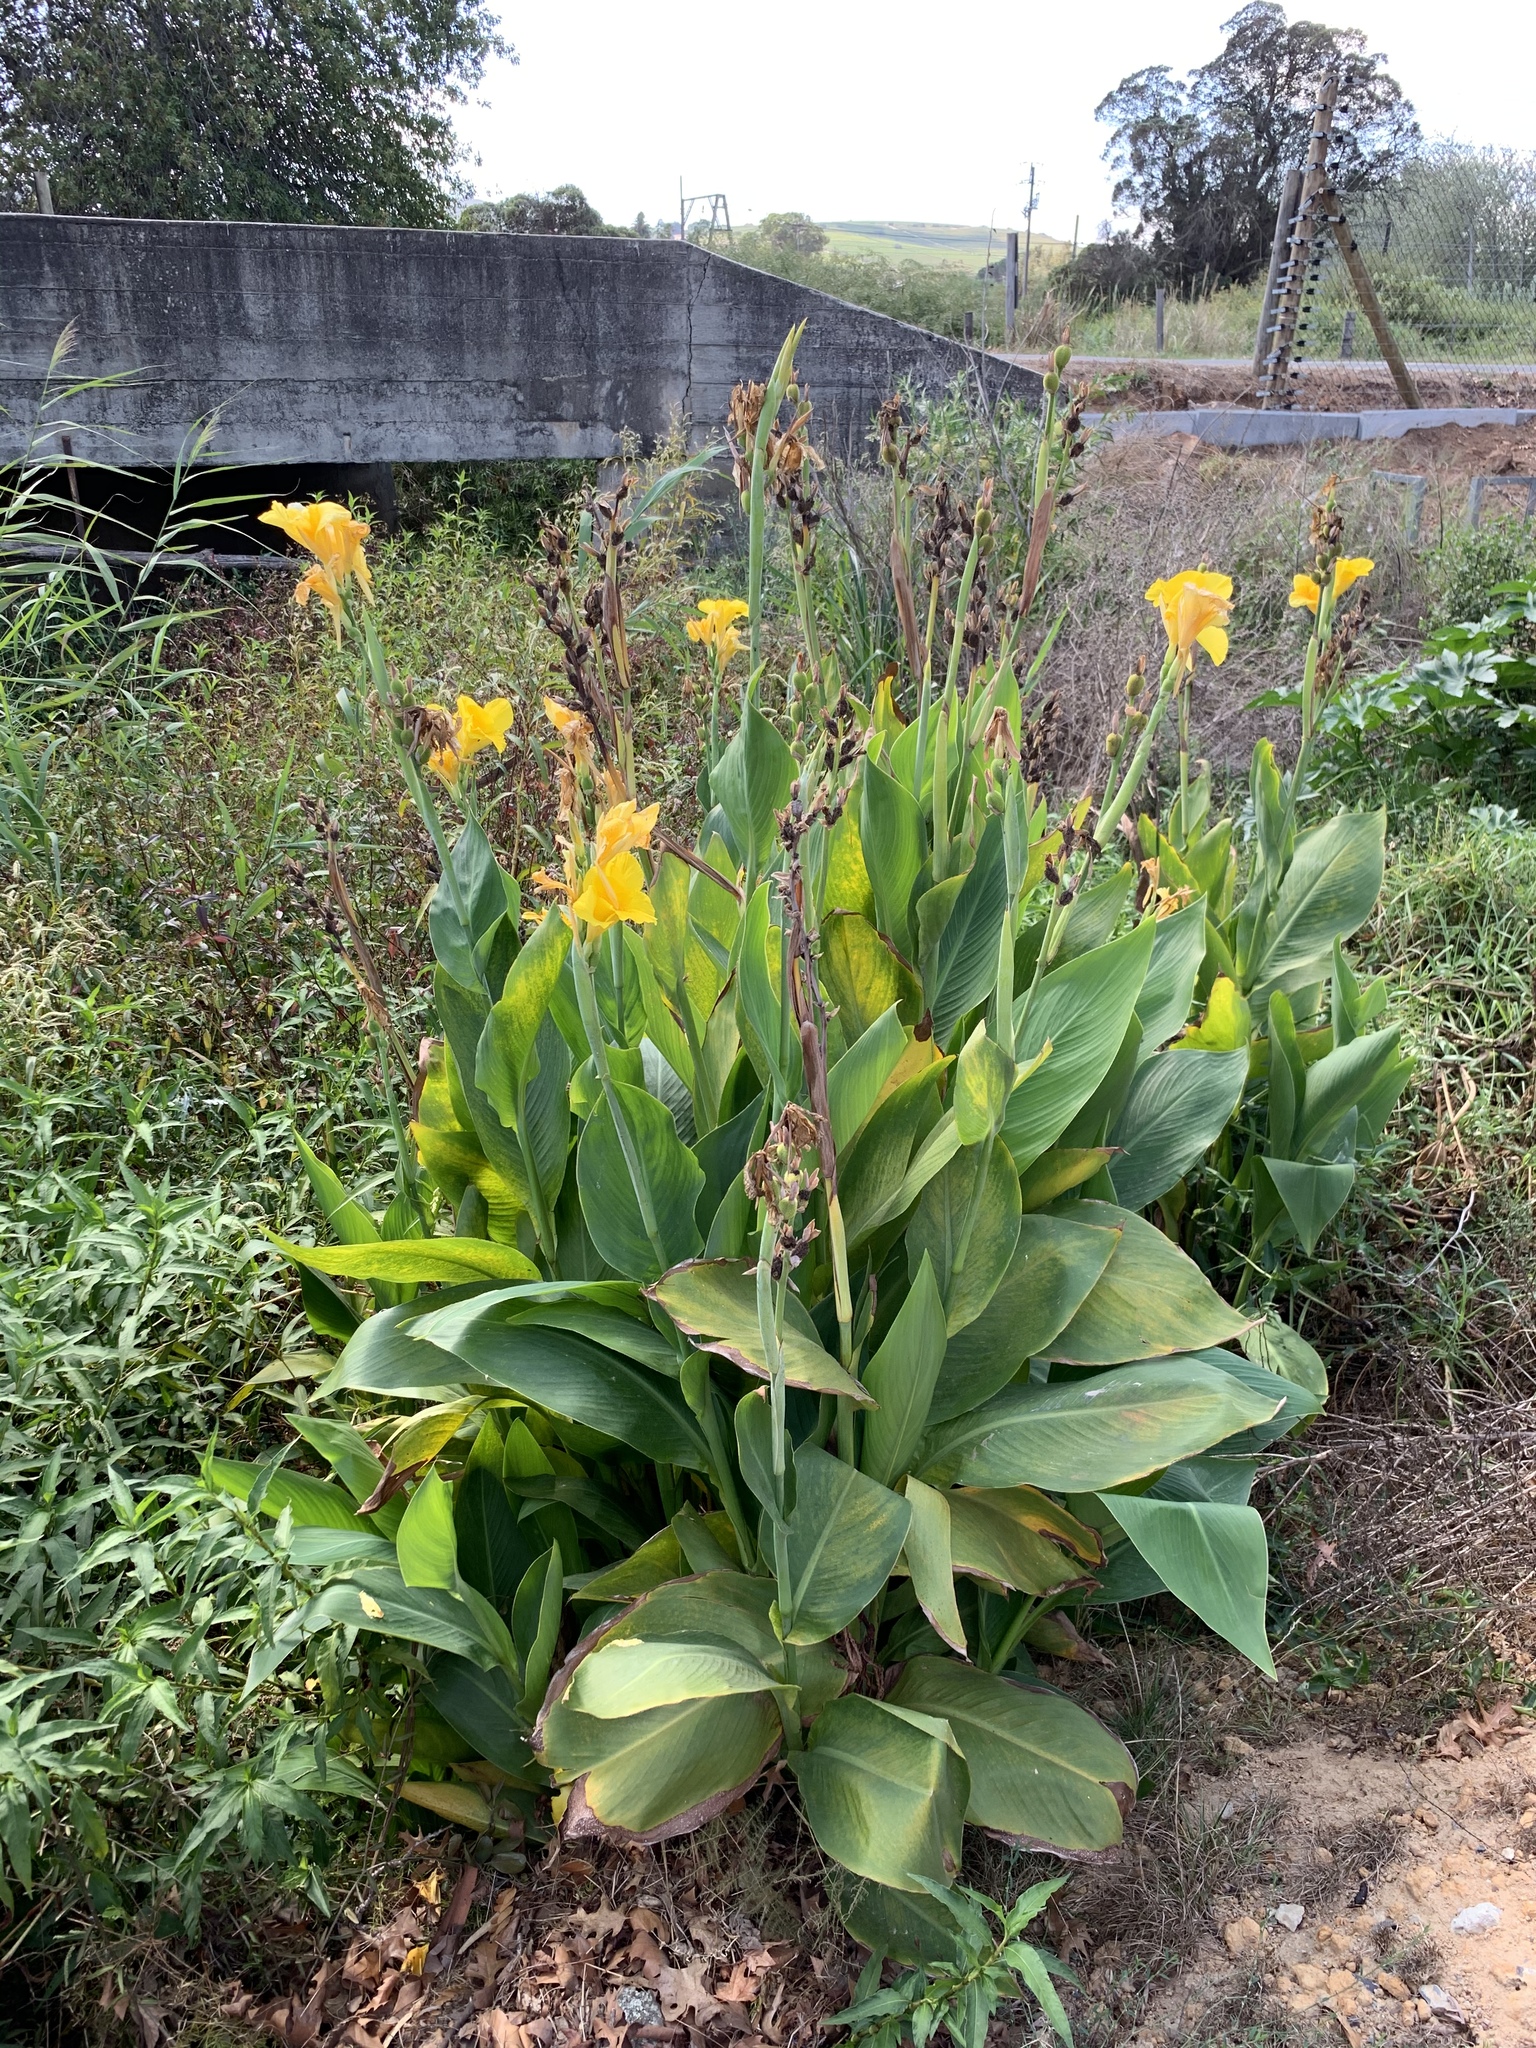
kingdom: Plantae
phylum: Tracheophyta
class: Liliopsida
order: Zingiberales
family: Cannaceae
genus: Canna
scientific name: Canna hybrida
